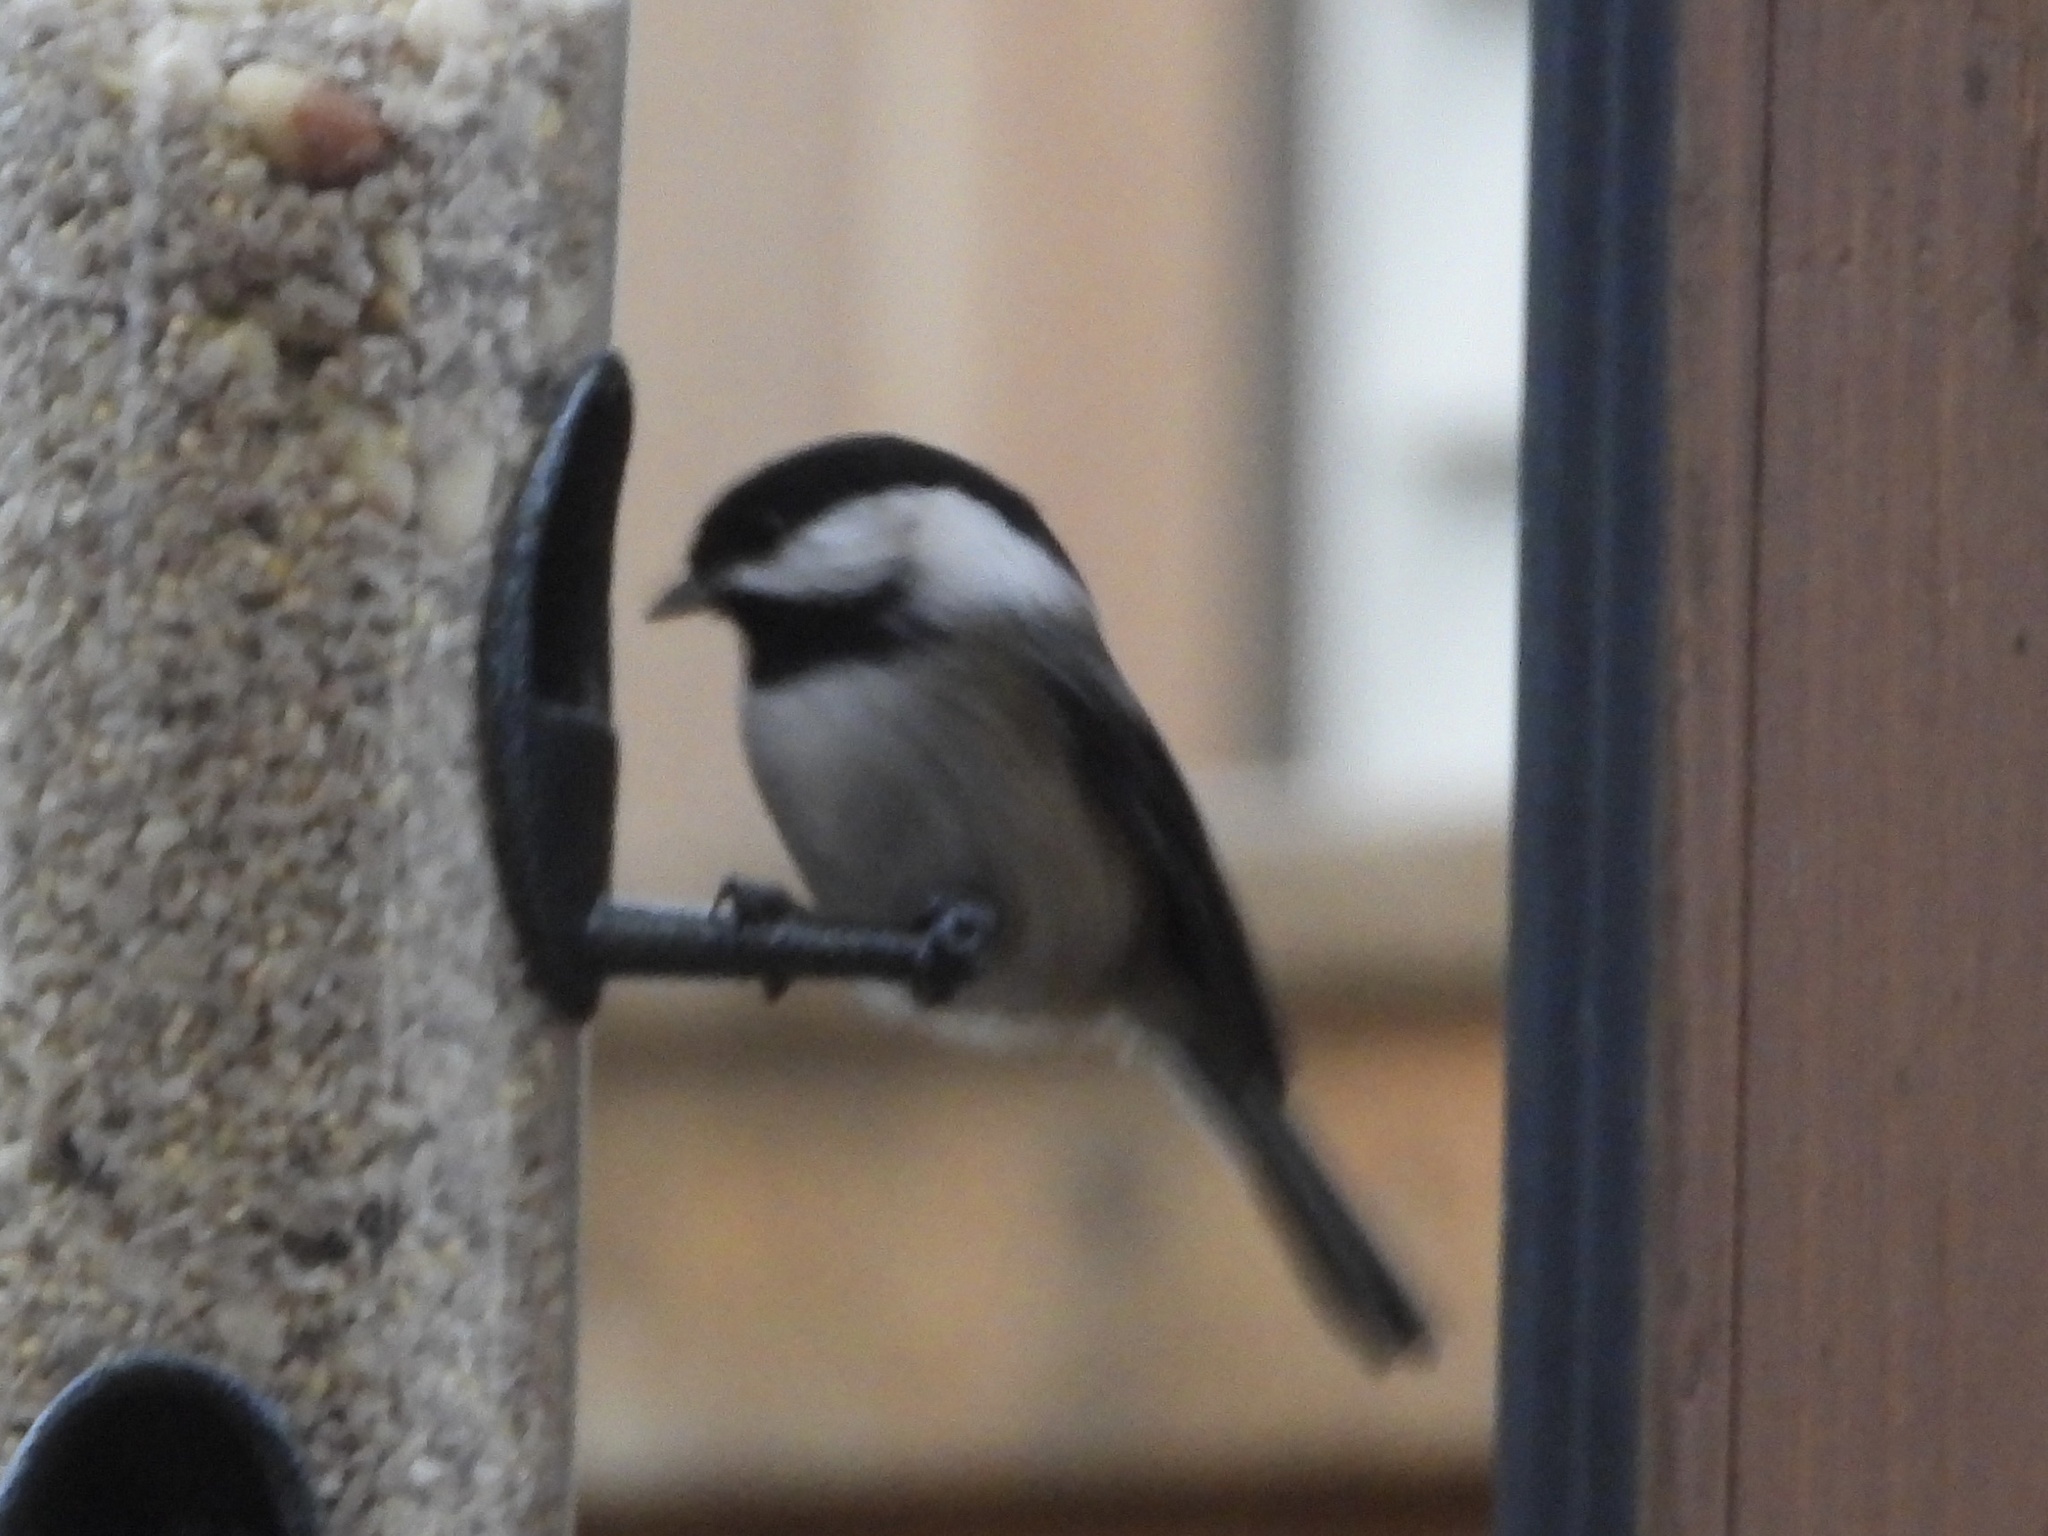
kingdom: Animalia
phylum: Chordata
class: Aves
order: Passeriformes
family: Paridae
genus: Poecile
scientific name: Poecile atricapillus
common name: Black-capped chickadee
